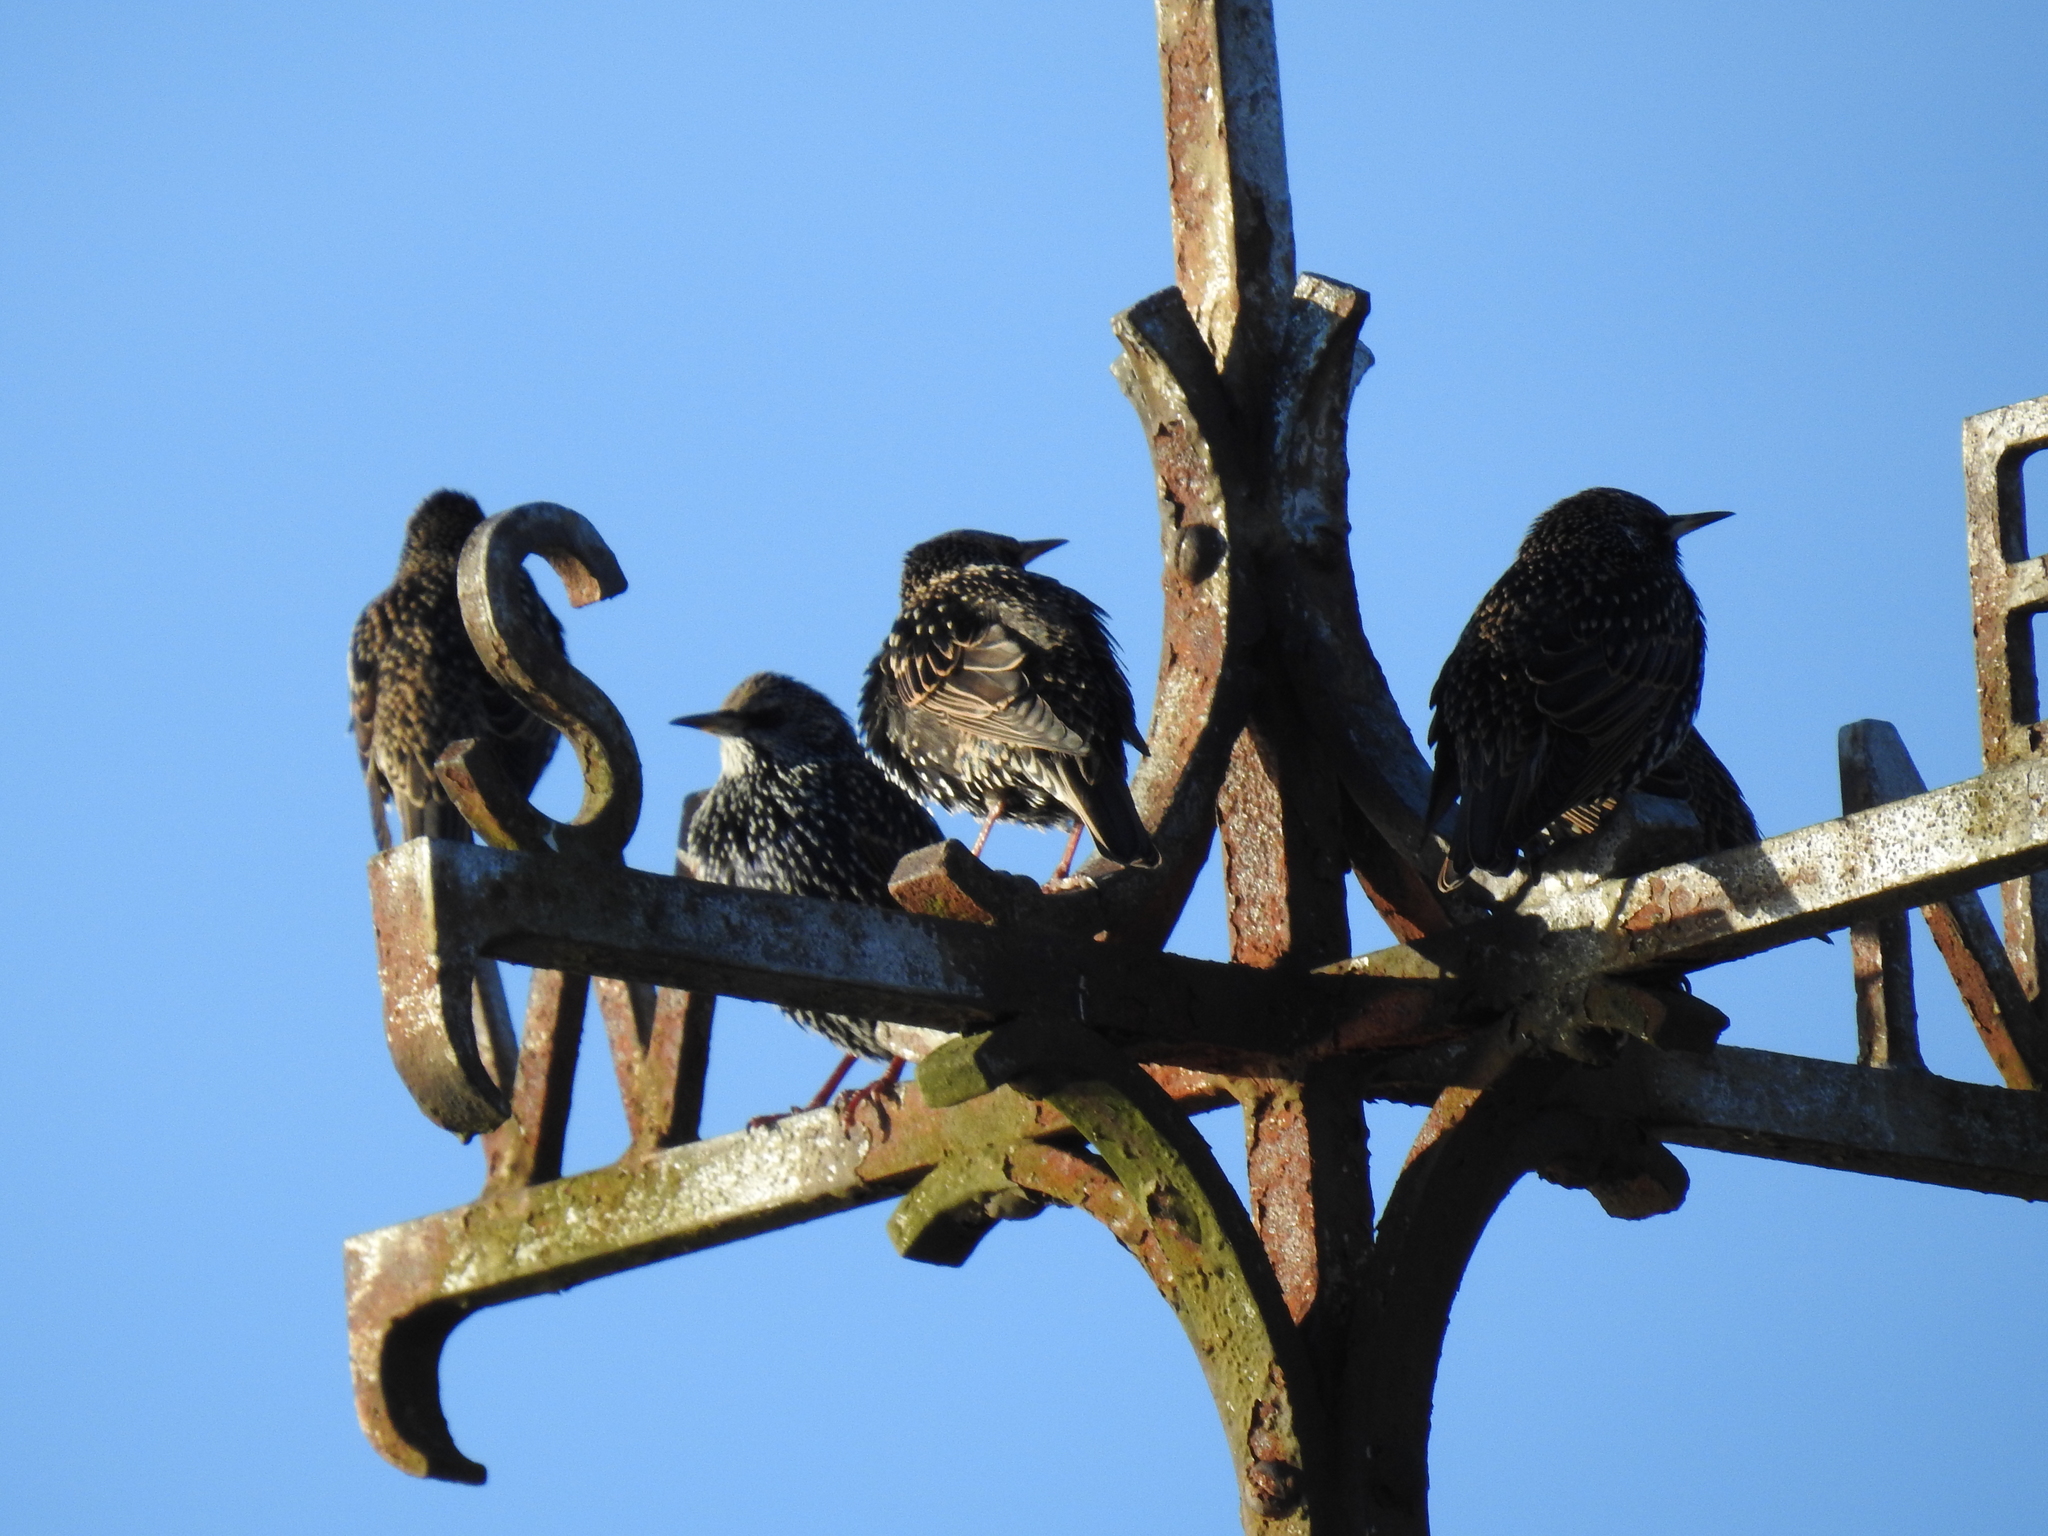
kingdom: Animalia
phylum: Chordata
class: Aves
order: Passeriformes
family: Sturnidae
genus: Sturnus
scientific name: Sturnus vulgaris
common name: Common starling
